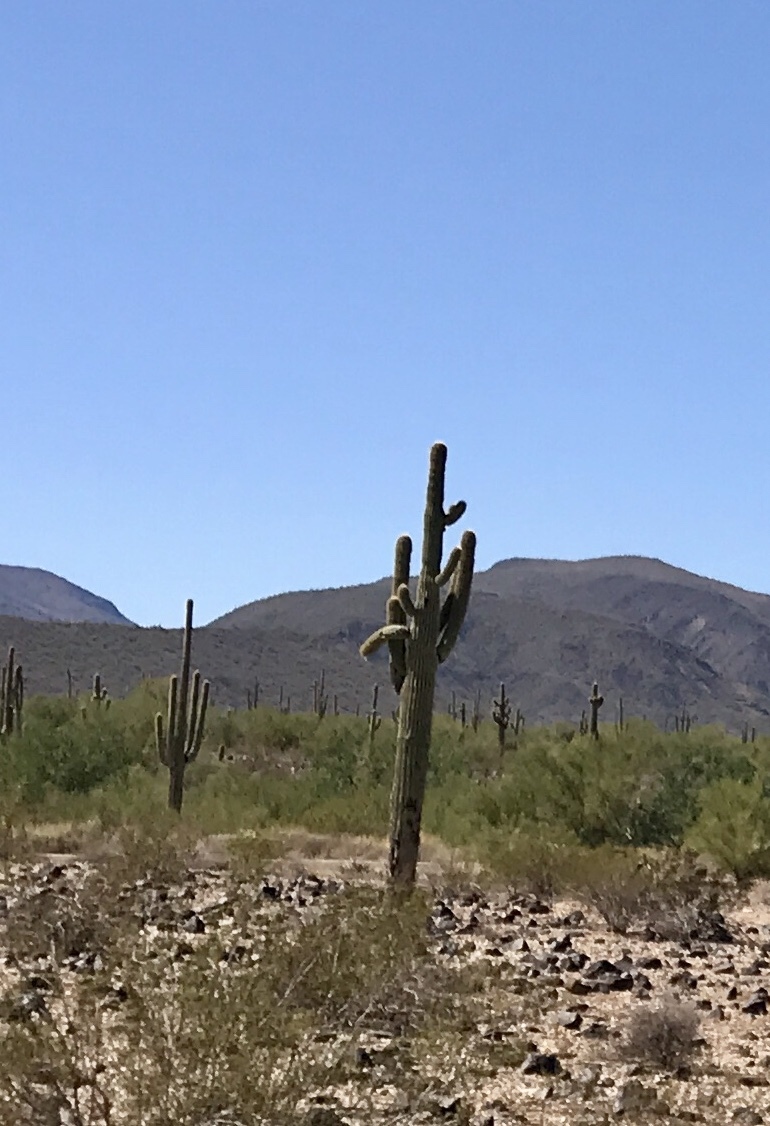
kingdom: Plantae
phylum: Tracheophyta
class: Magnoliopsida
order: Caryophyllales
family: Cactaceae
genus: Carnegiea
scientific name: Carnegiea gigantea
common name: Saguaro
